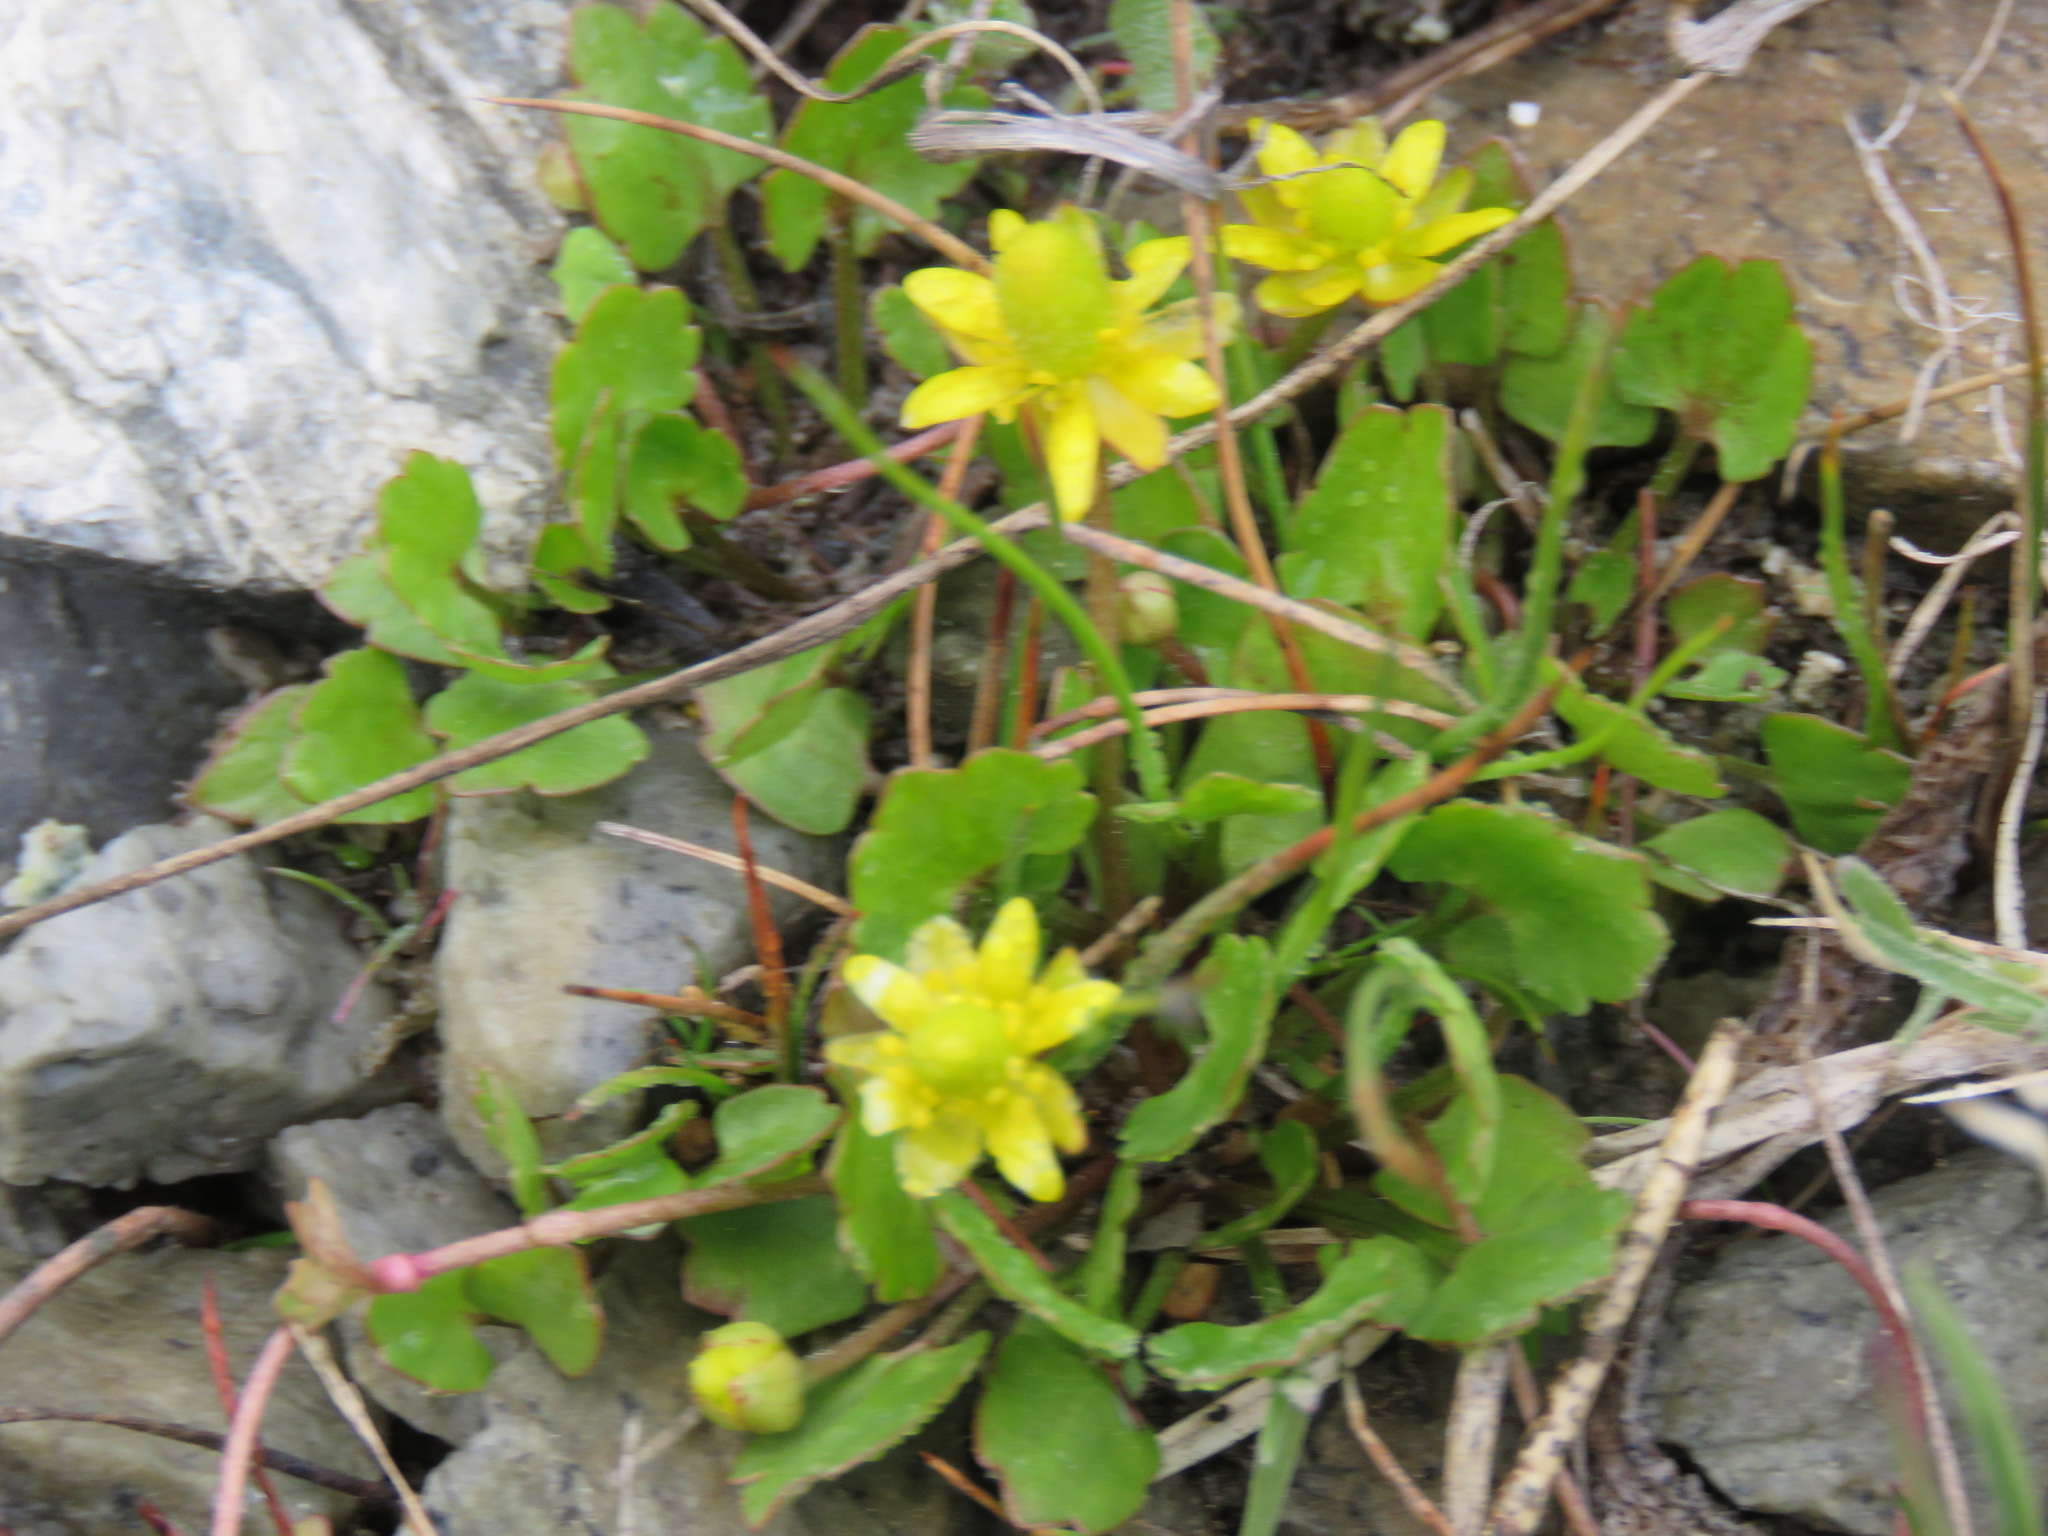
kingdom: Plantae
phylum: Tracheophyta
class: Magnoliopsida
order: Ranunculales
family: Ranunculaceae
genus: Halerpestes
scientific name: Halerpestes cymbalaria
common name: Seaside crowfoot
